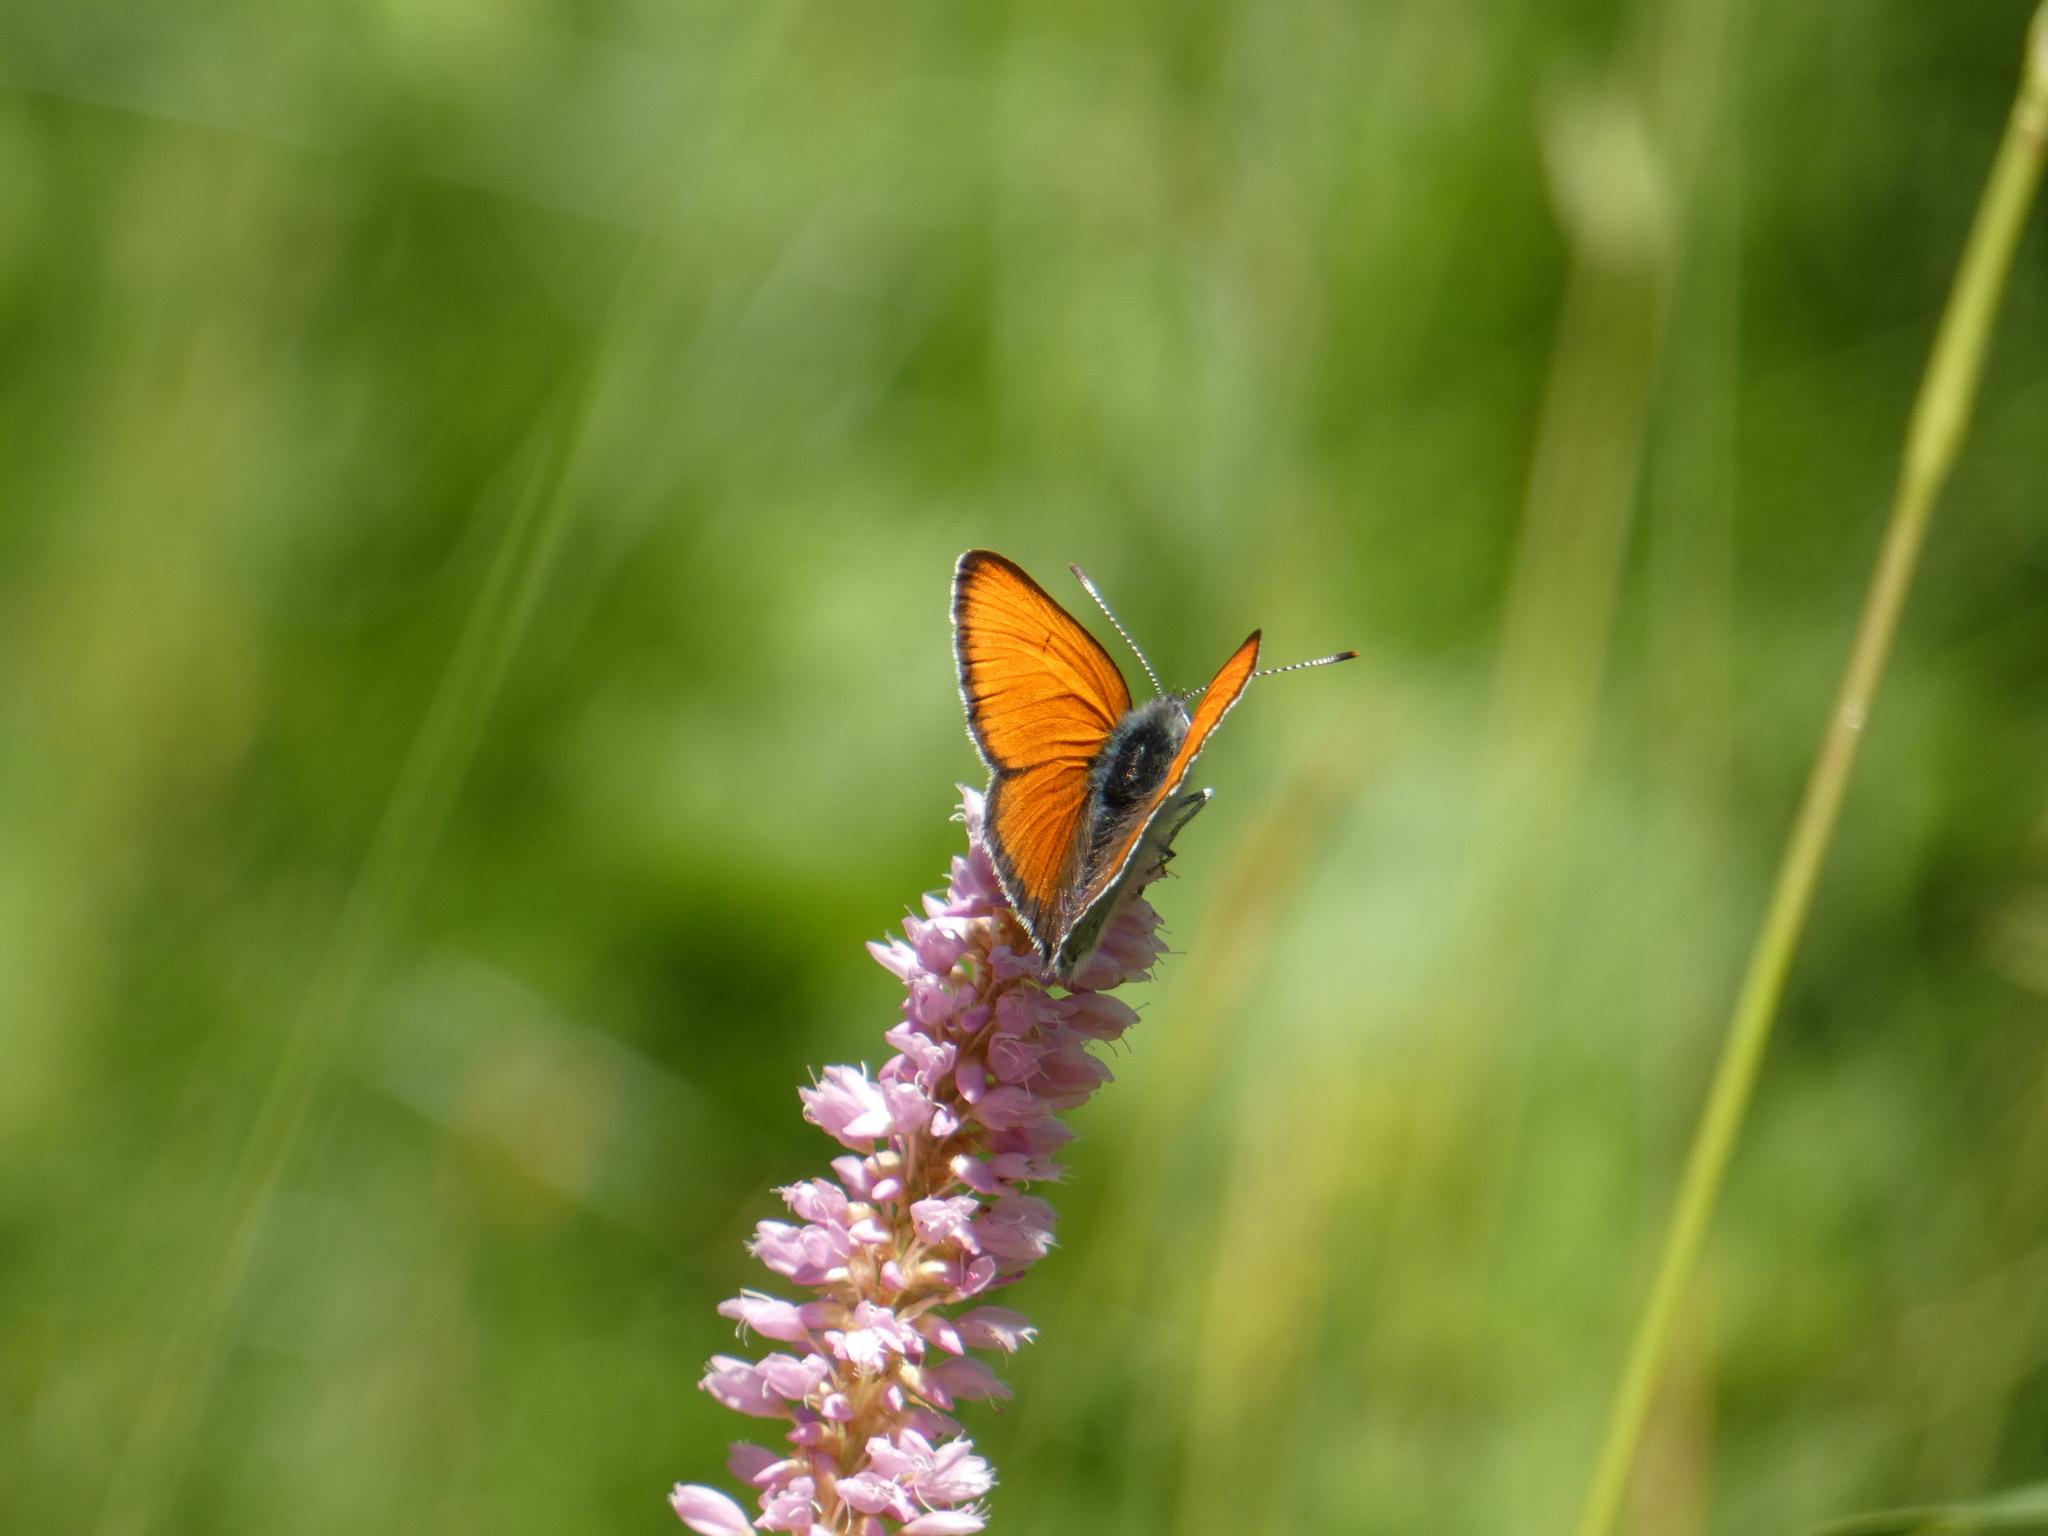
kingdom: Animalia
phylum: Arthropoda
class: Insecta
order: Lepidoptera
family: Lycaenidae
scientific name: Lycaenidae
